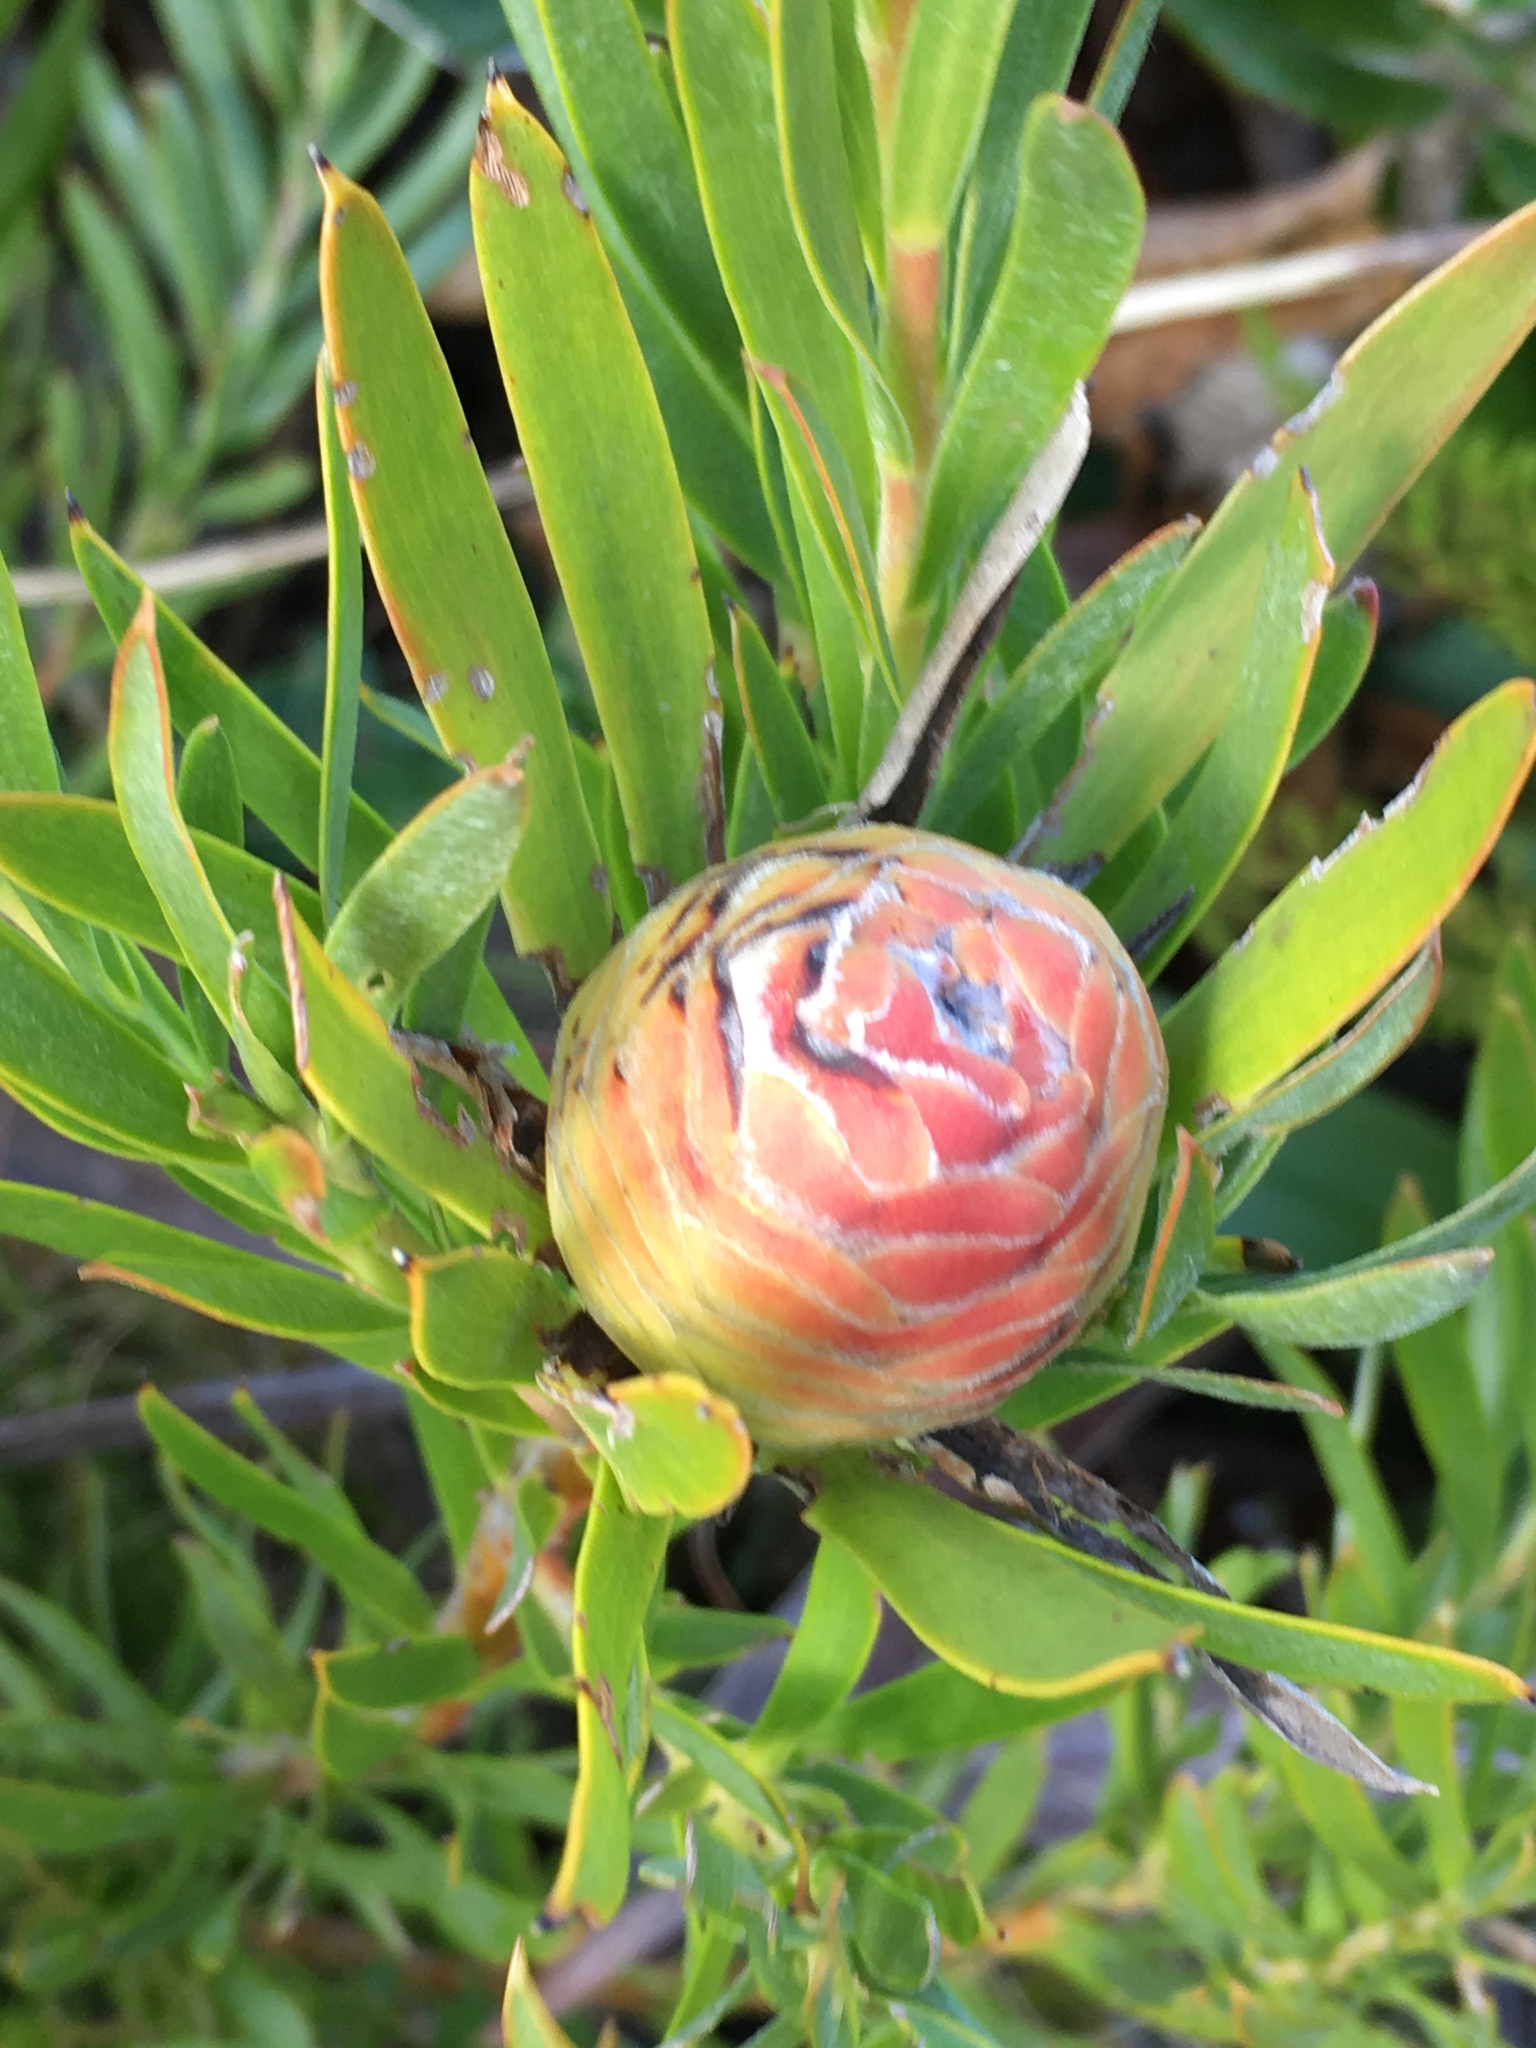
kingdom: Plantae
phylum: Tracheophyta
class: Magnoliopsida
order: Proteales
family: Proteaceae
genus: Leucadendron
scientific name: Leucadendron xanthoconus
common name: Sickle-leaf conebush
